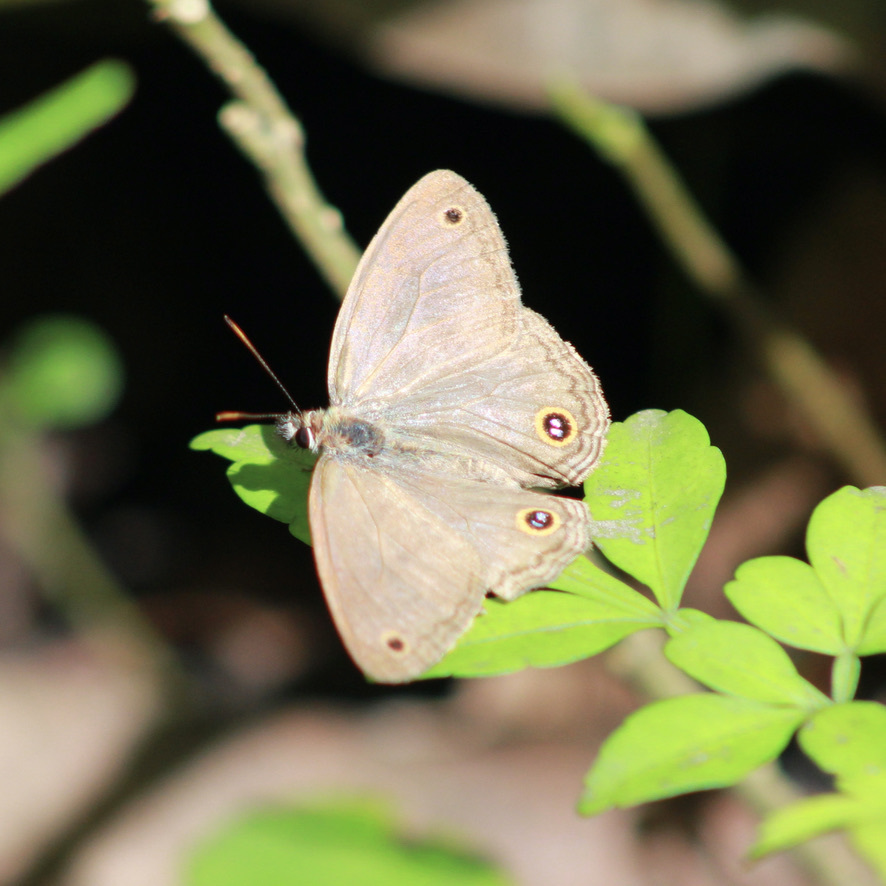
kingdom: Animalia
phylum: Arthropoda
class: Insecta
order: Lepidoptera
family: Nymphalidae
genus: Argyreuptychia
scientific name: Argyreuptychia penelope
